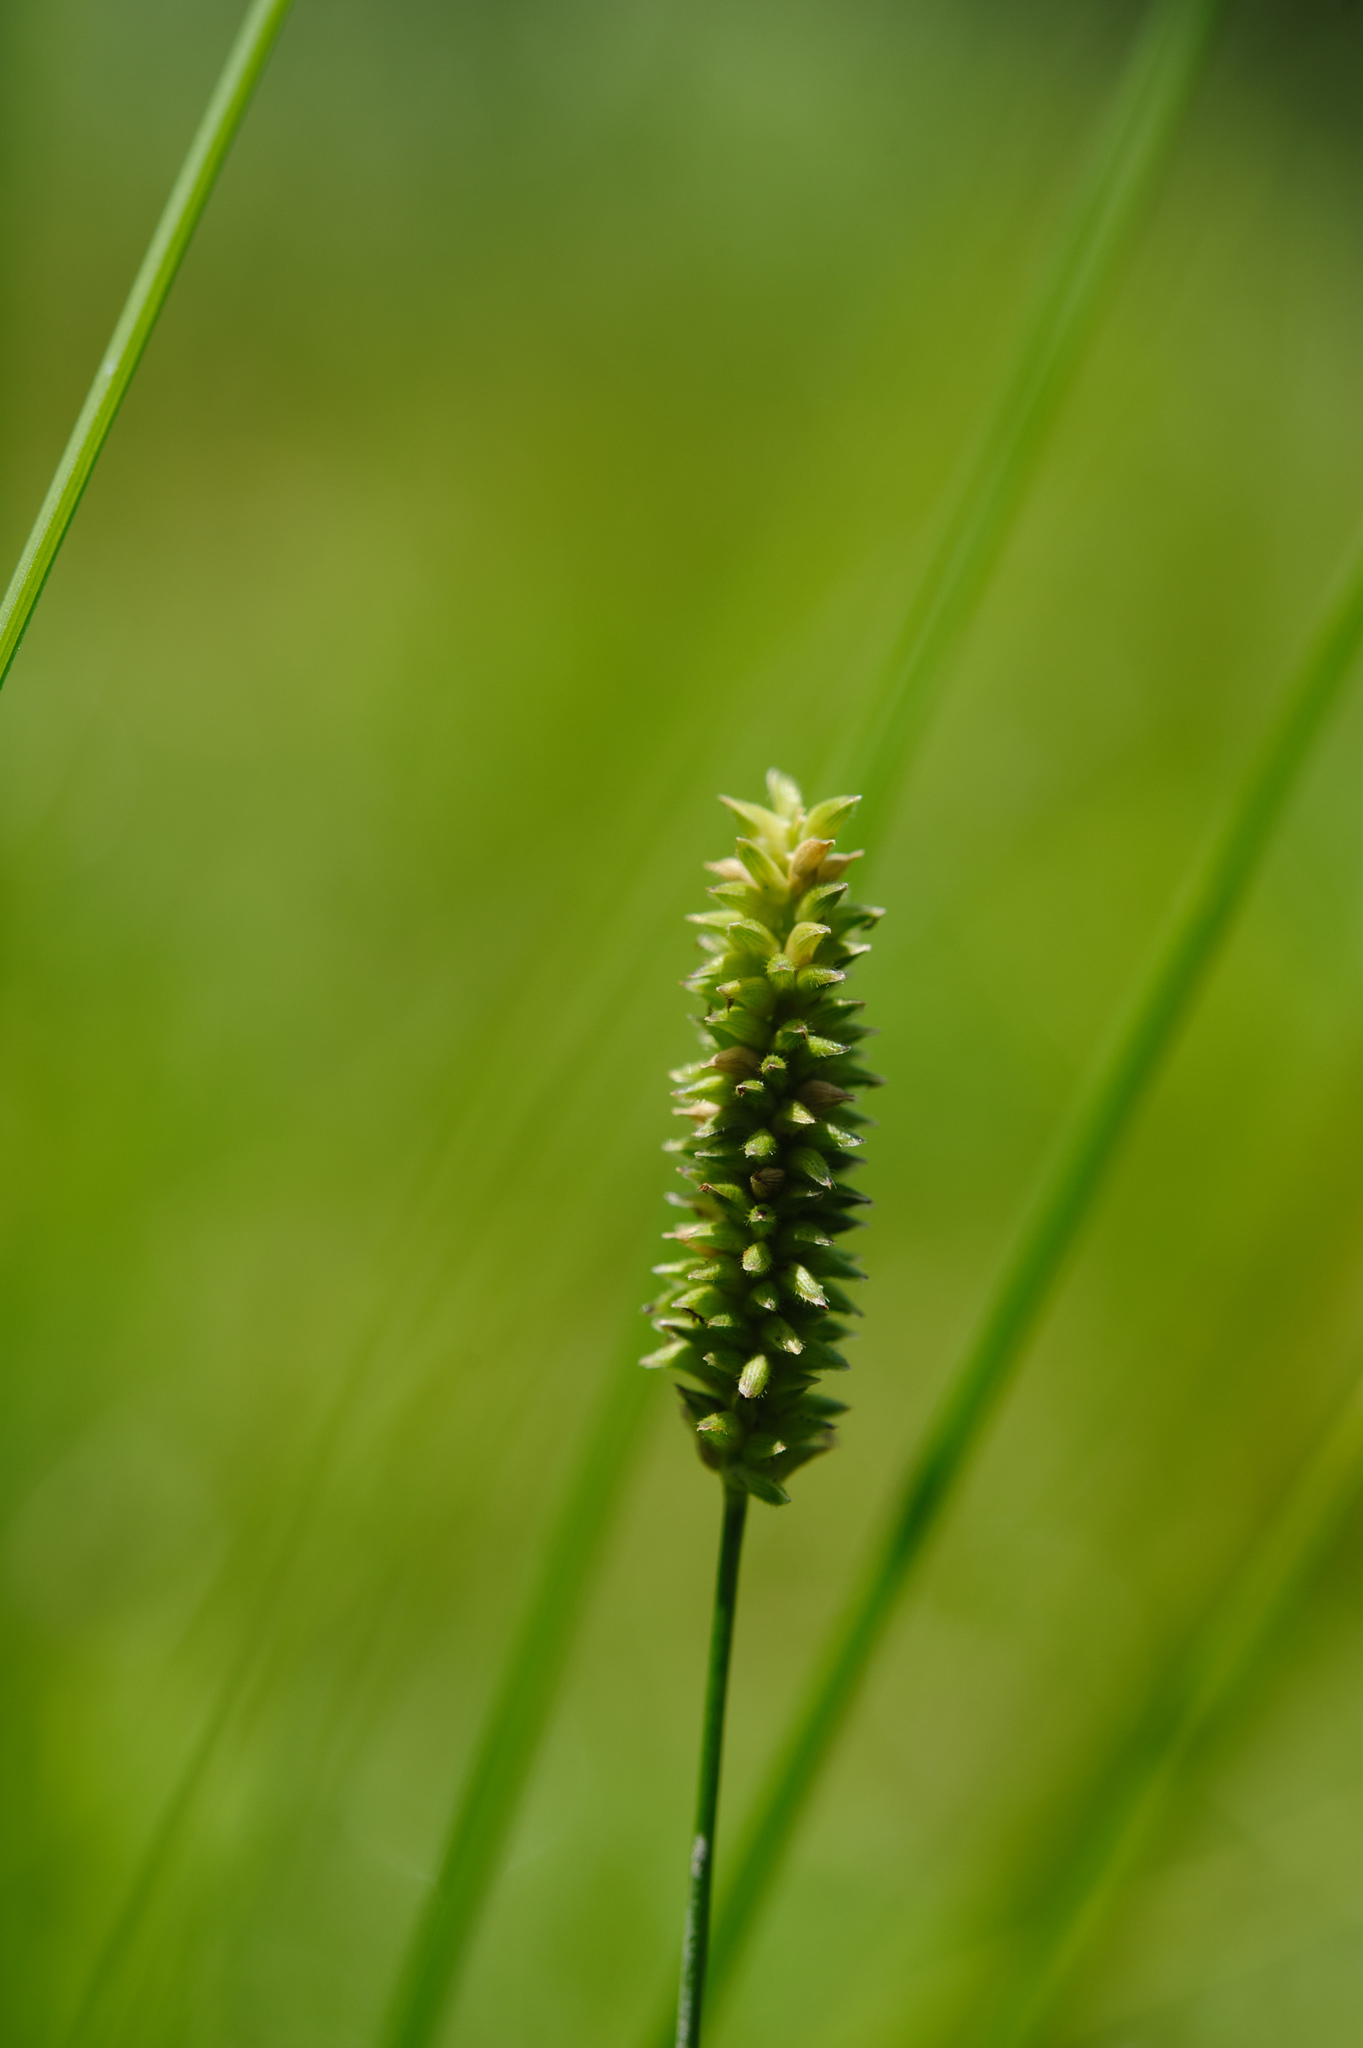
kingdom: Plantae
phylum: Tracheophyta
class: Liliopsida
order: Poales
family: Poaceae
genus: Sacciolepis
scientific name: Sacciolepis indica
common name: Glenwoodgrass
